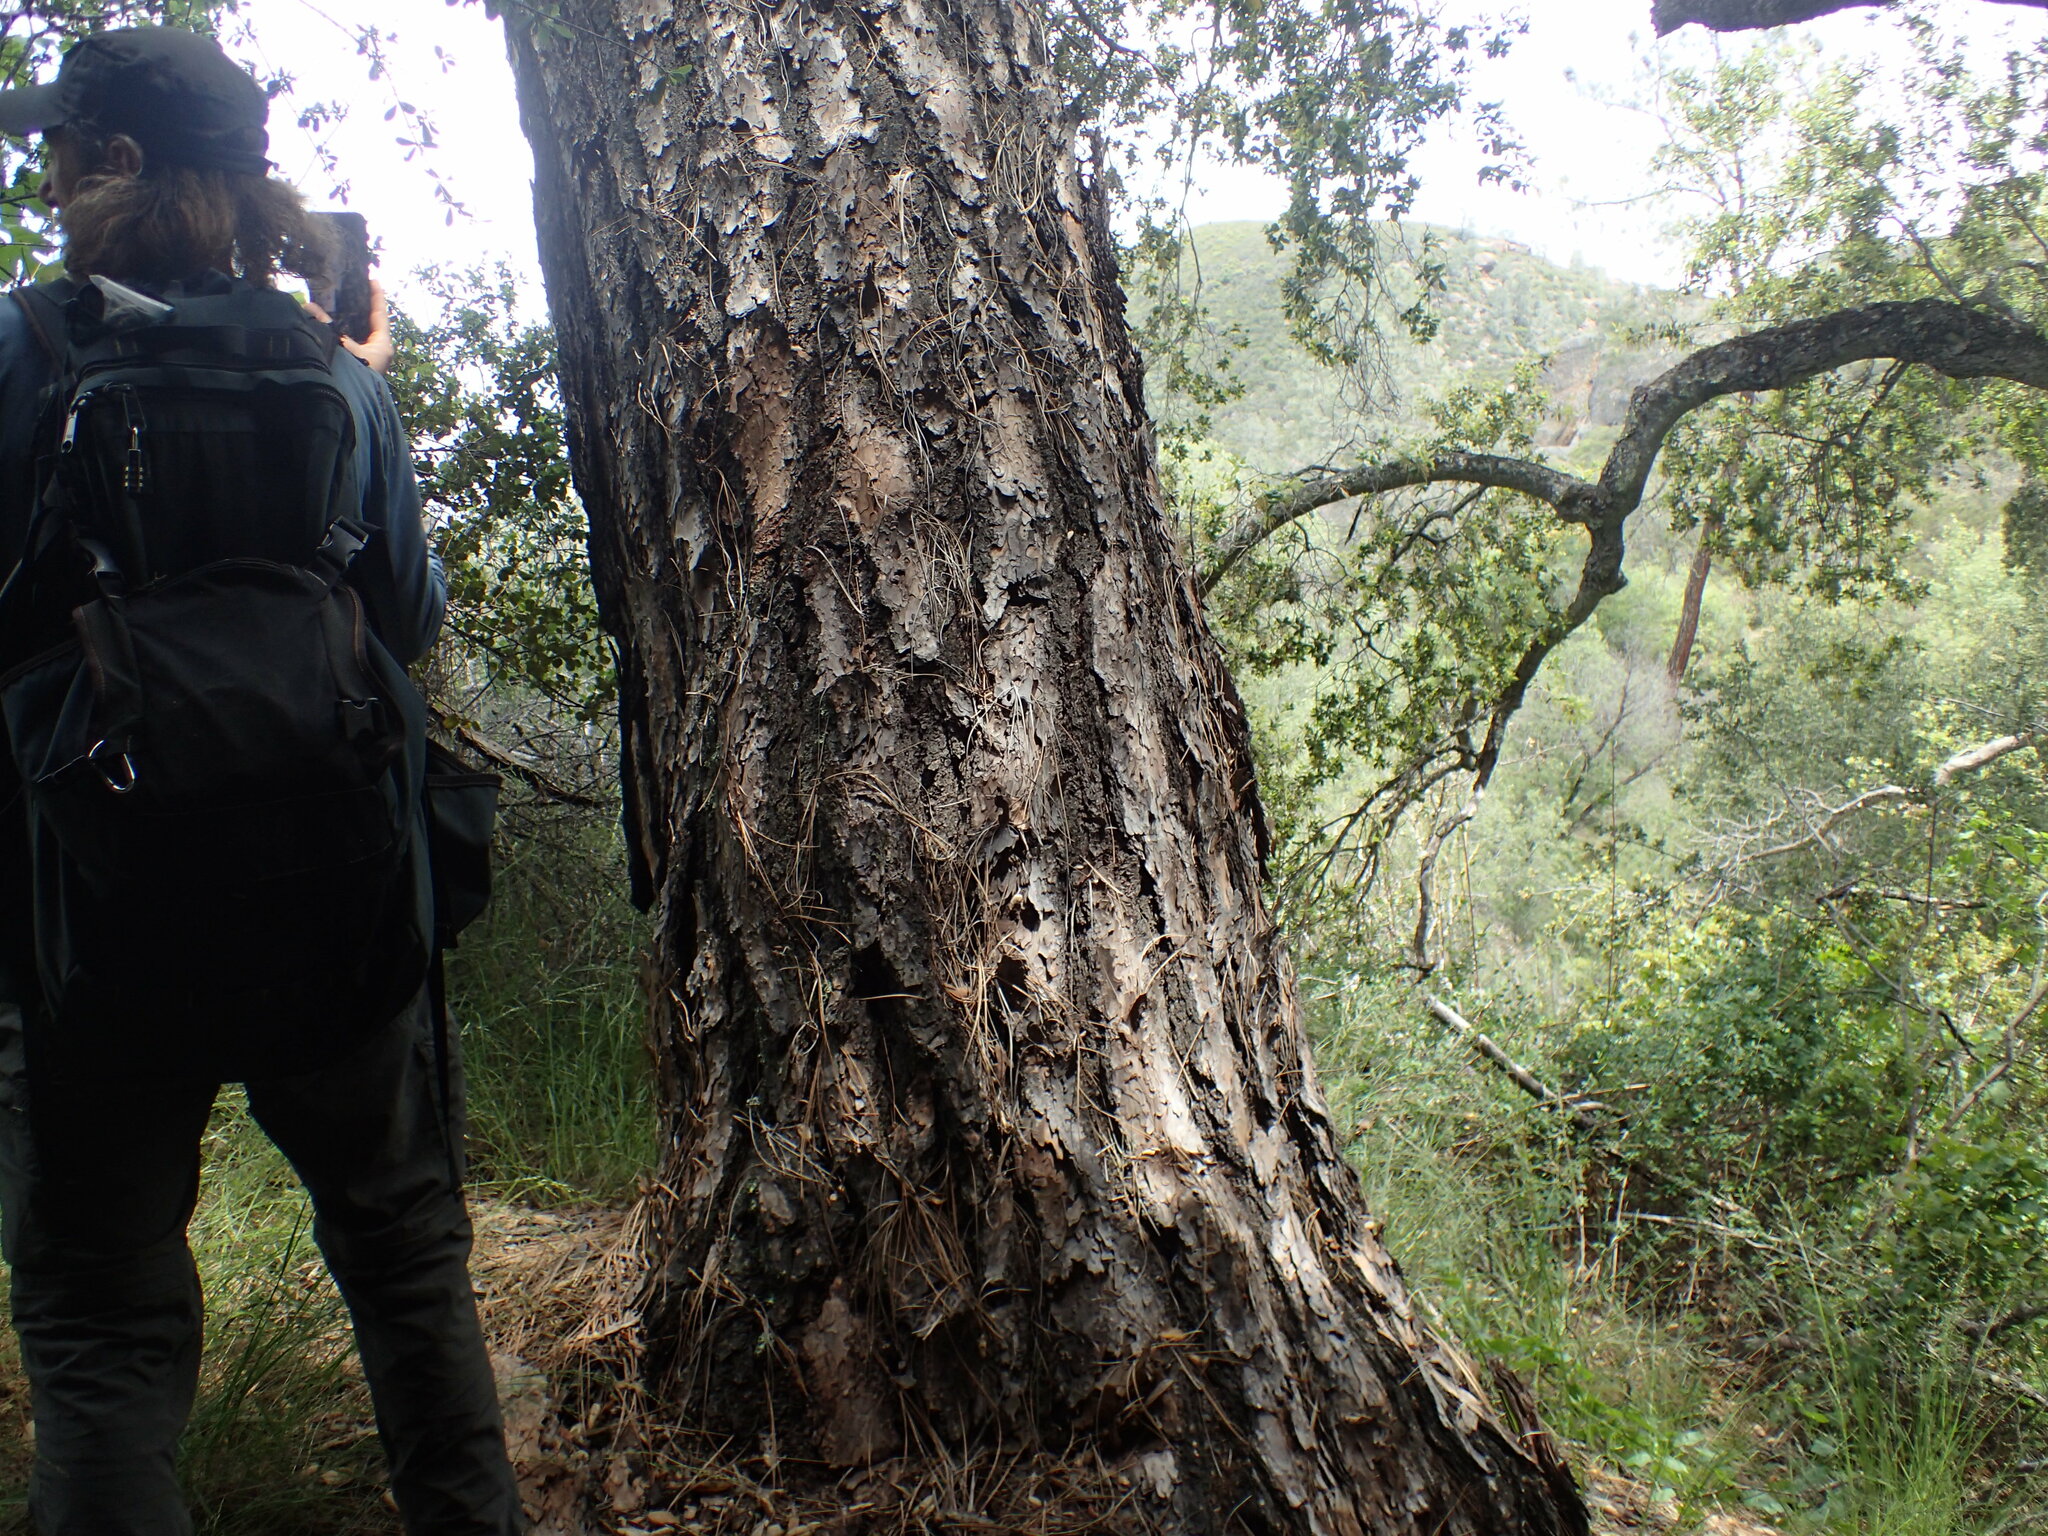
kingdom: Plantae
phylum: Tracheophyta
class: Pinopsida
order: Pinales
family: Pinaceae
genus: Pinus
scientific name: Pinus sabiniana
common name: Bull pine
